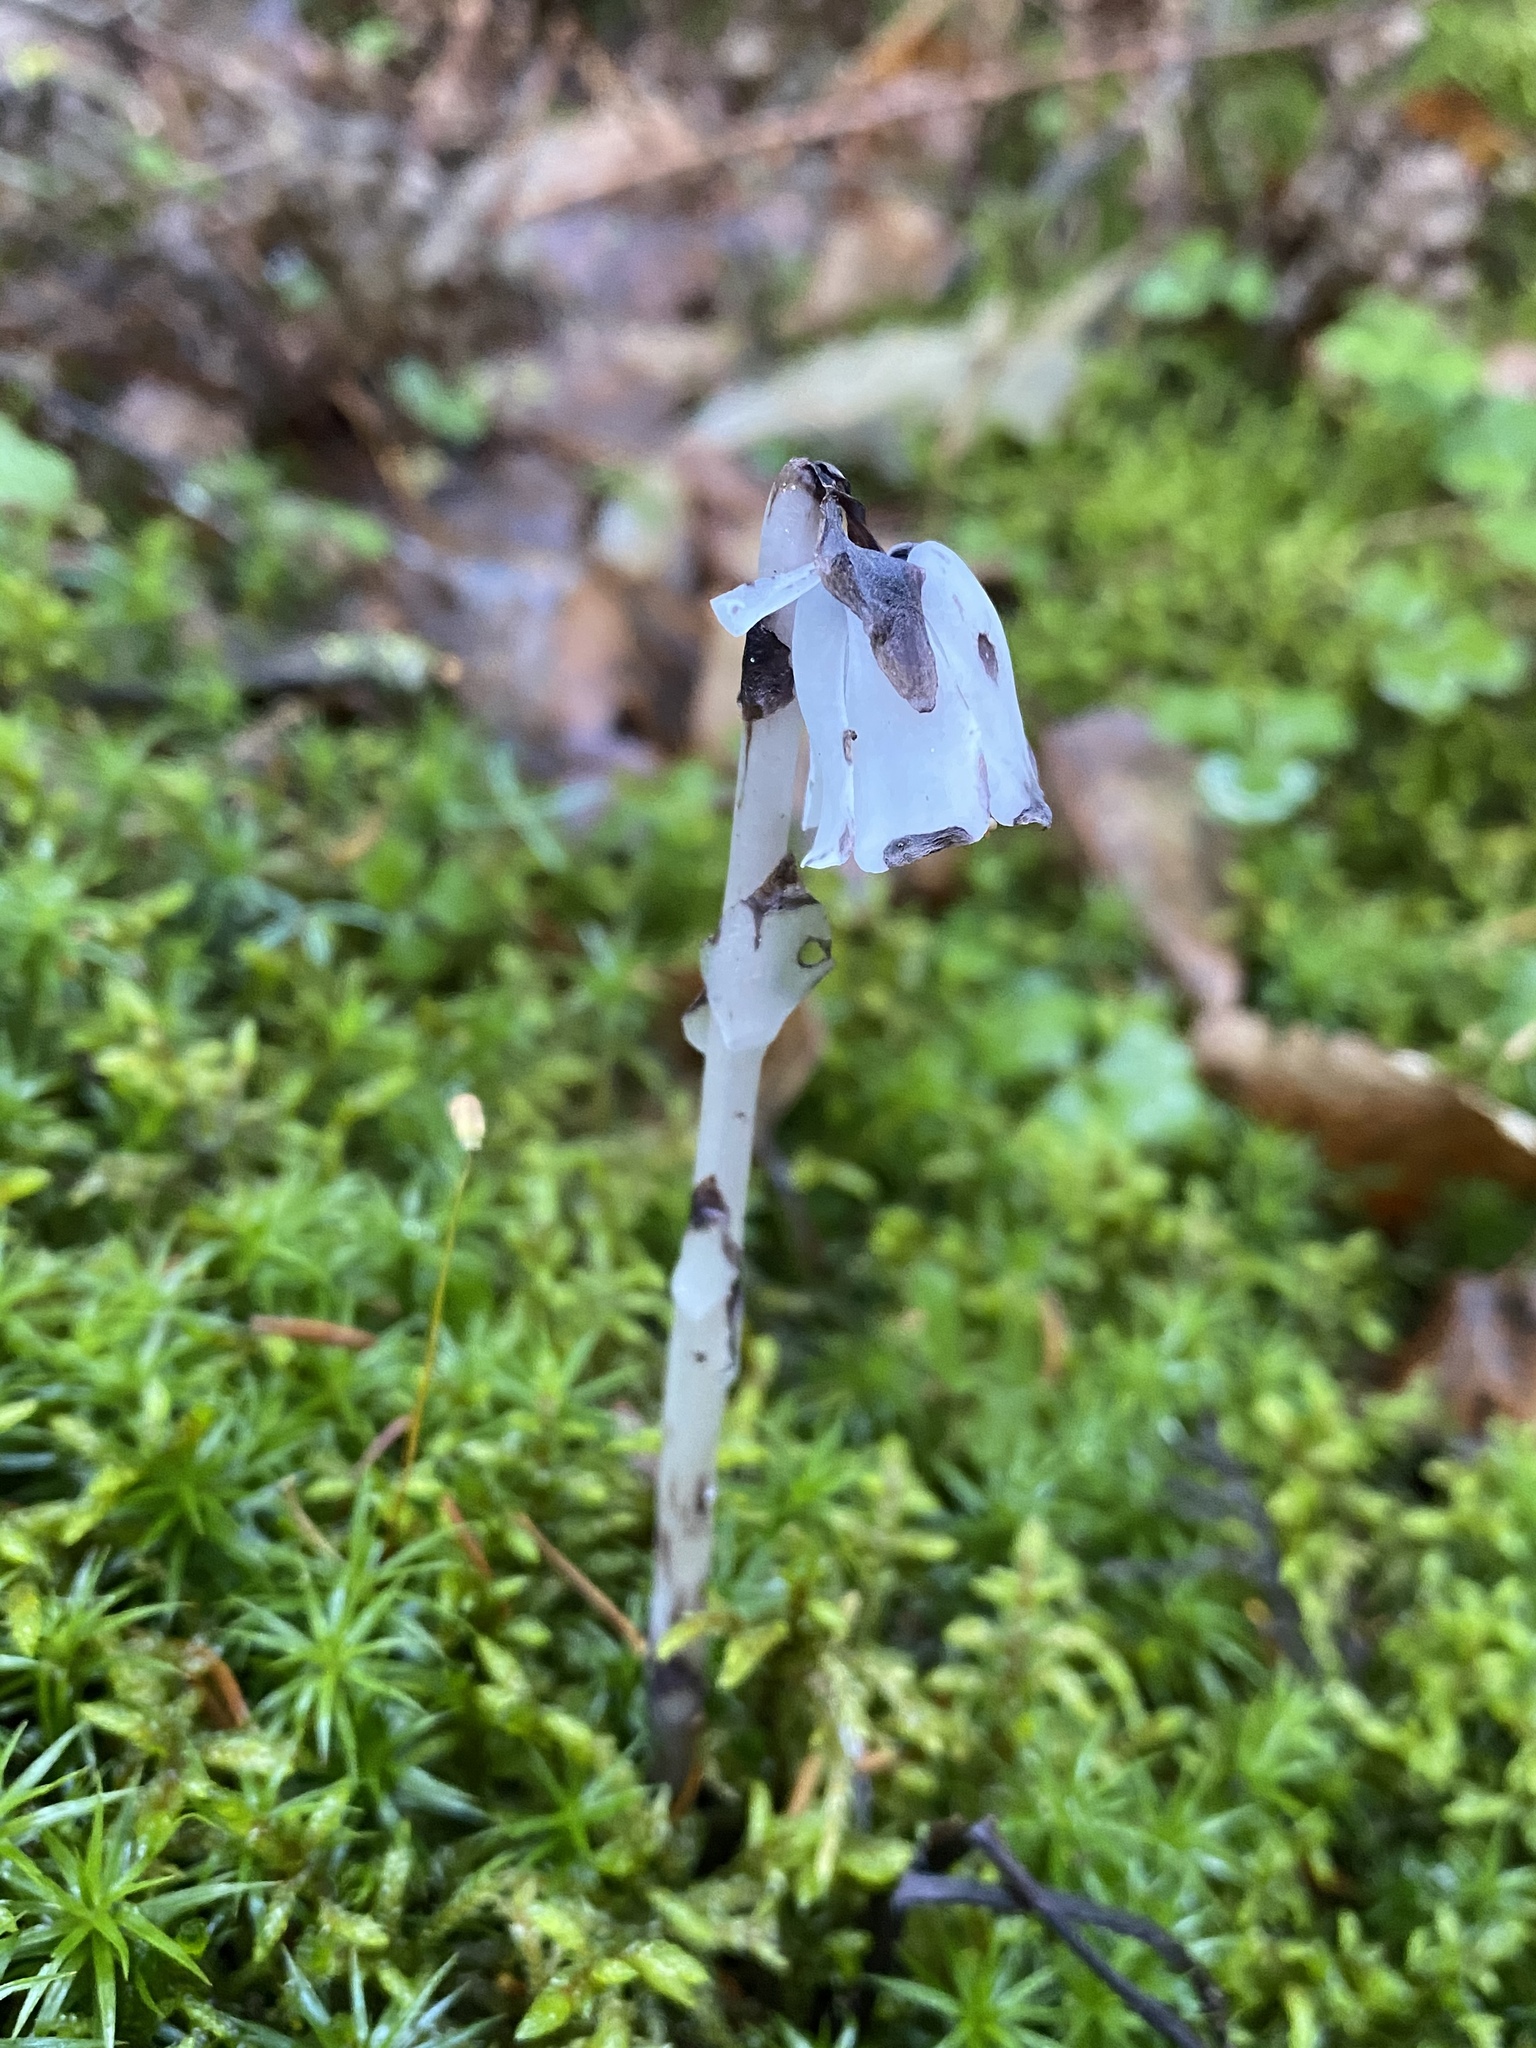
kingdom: Plantae
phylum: Tracheophyta
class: Magnoliopsida
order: Ericales
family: Ericaceae
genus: Monotropa
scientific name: Monotropa uniflora
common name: Convulsion root
